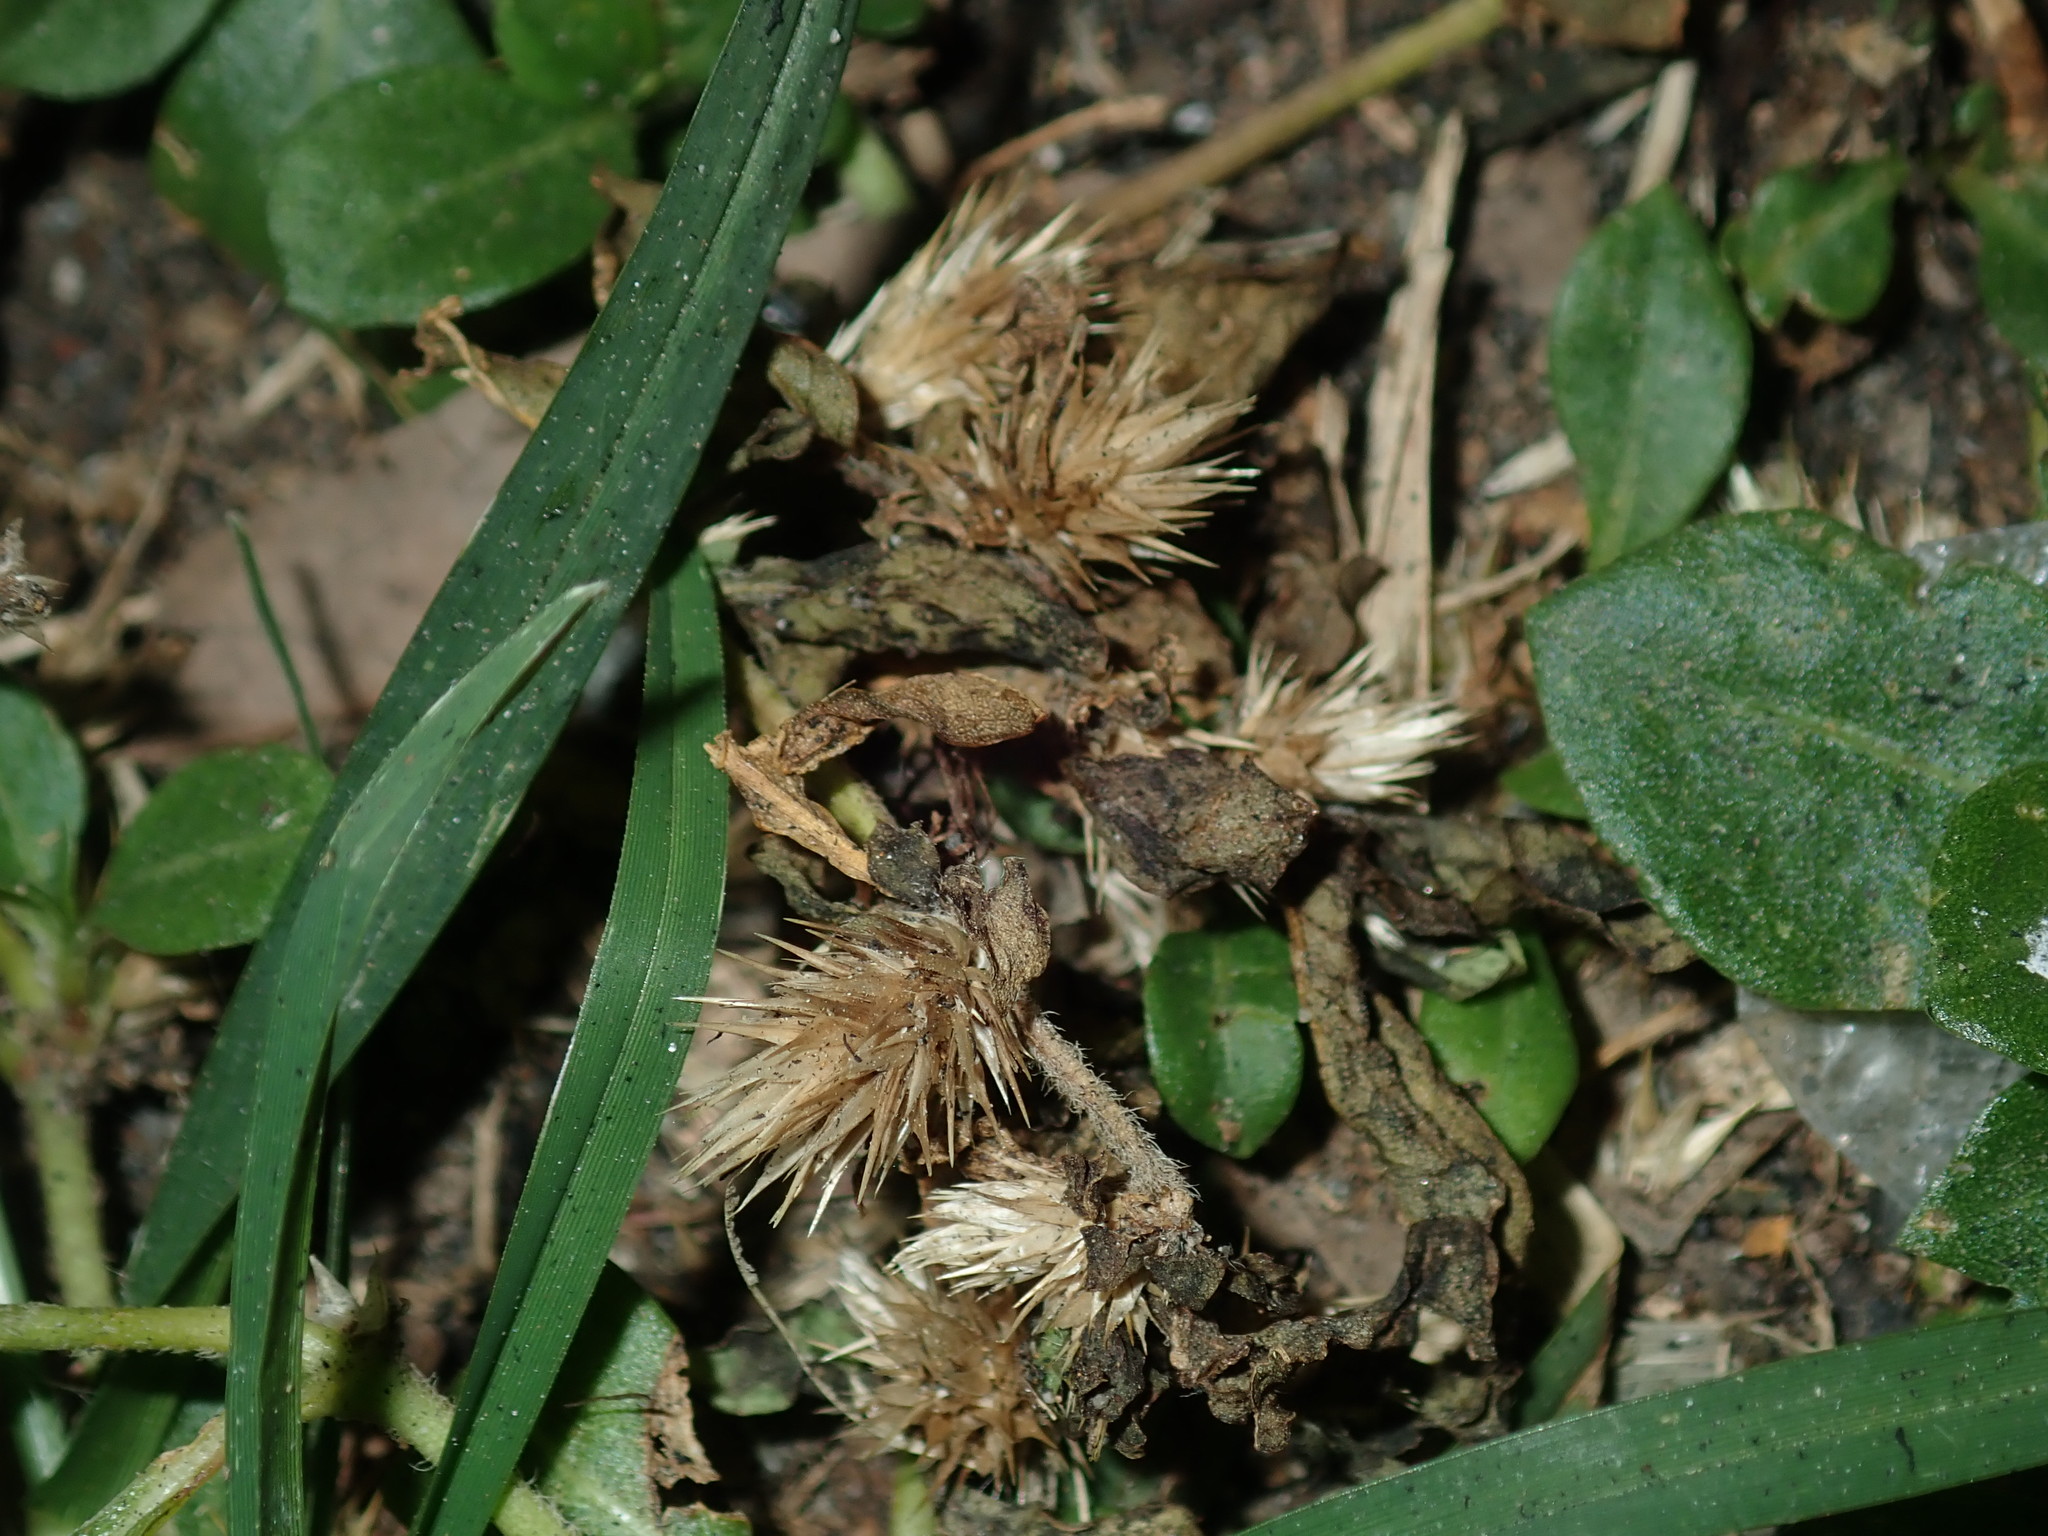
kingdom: Plantae
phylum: Tracheophyta
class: Magnoliopsida
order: Caryophyllales
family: Amaranthaceae
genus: Alternanthera
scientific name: Alternanthera pungens
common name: Khakiweed
